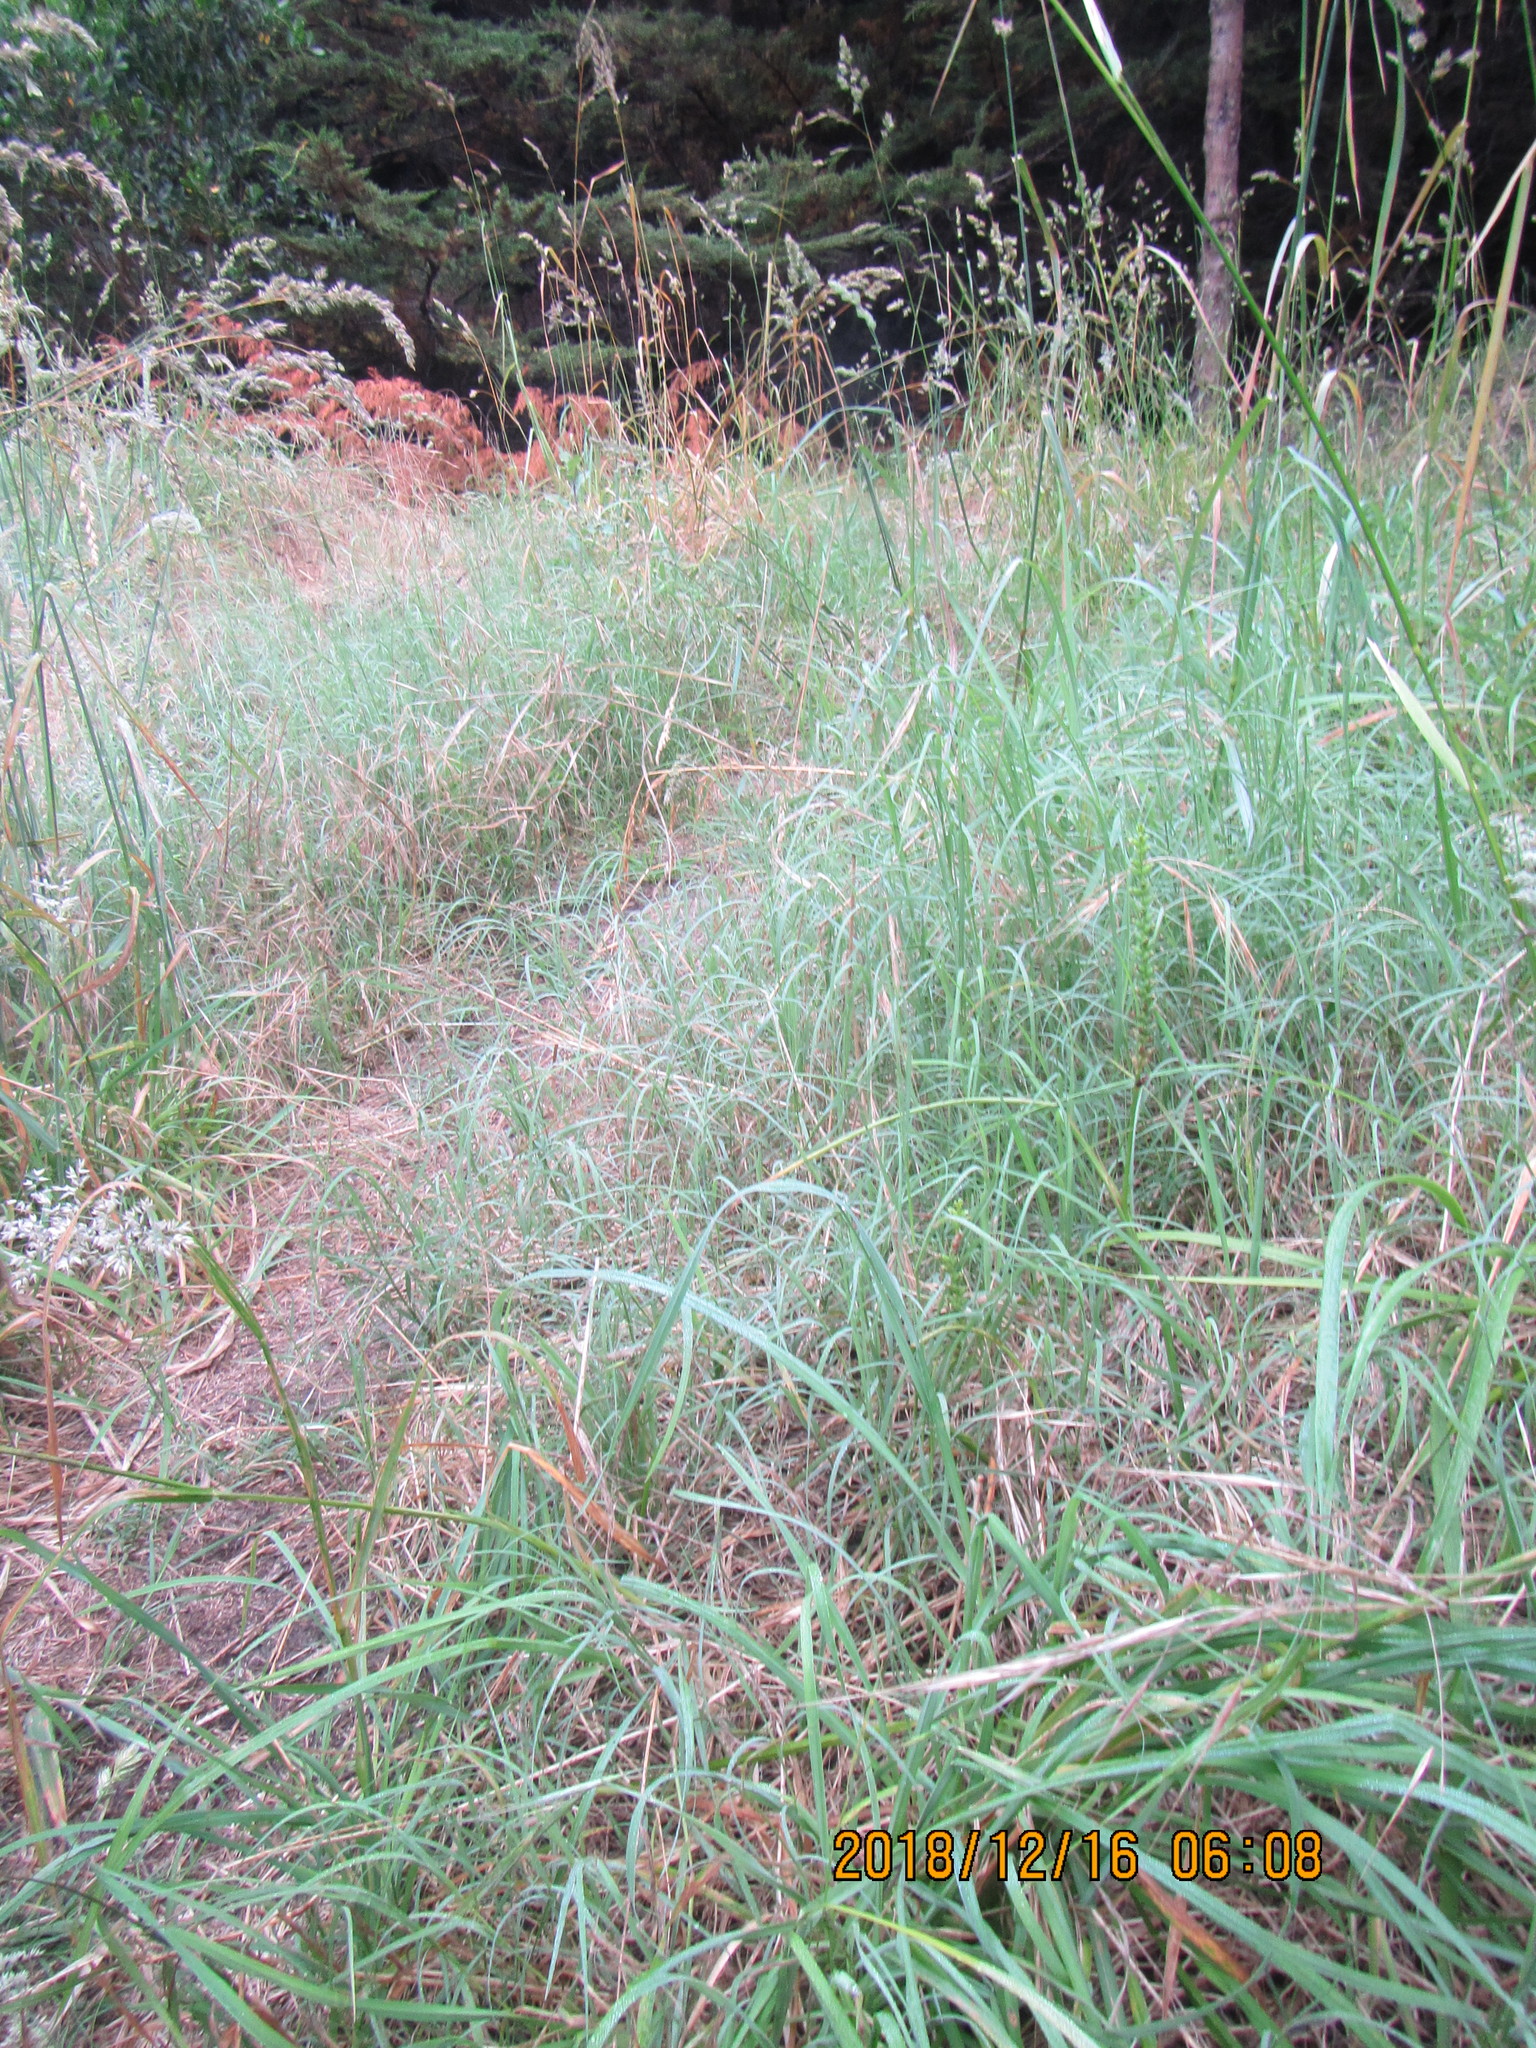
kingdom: Plantae
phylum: Tracheophyta
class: Liliopsida
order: Asparagales
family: Orchidaceae
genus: Microtis
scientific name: Microtis unifolia
